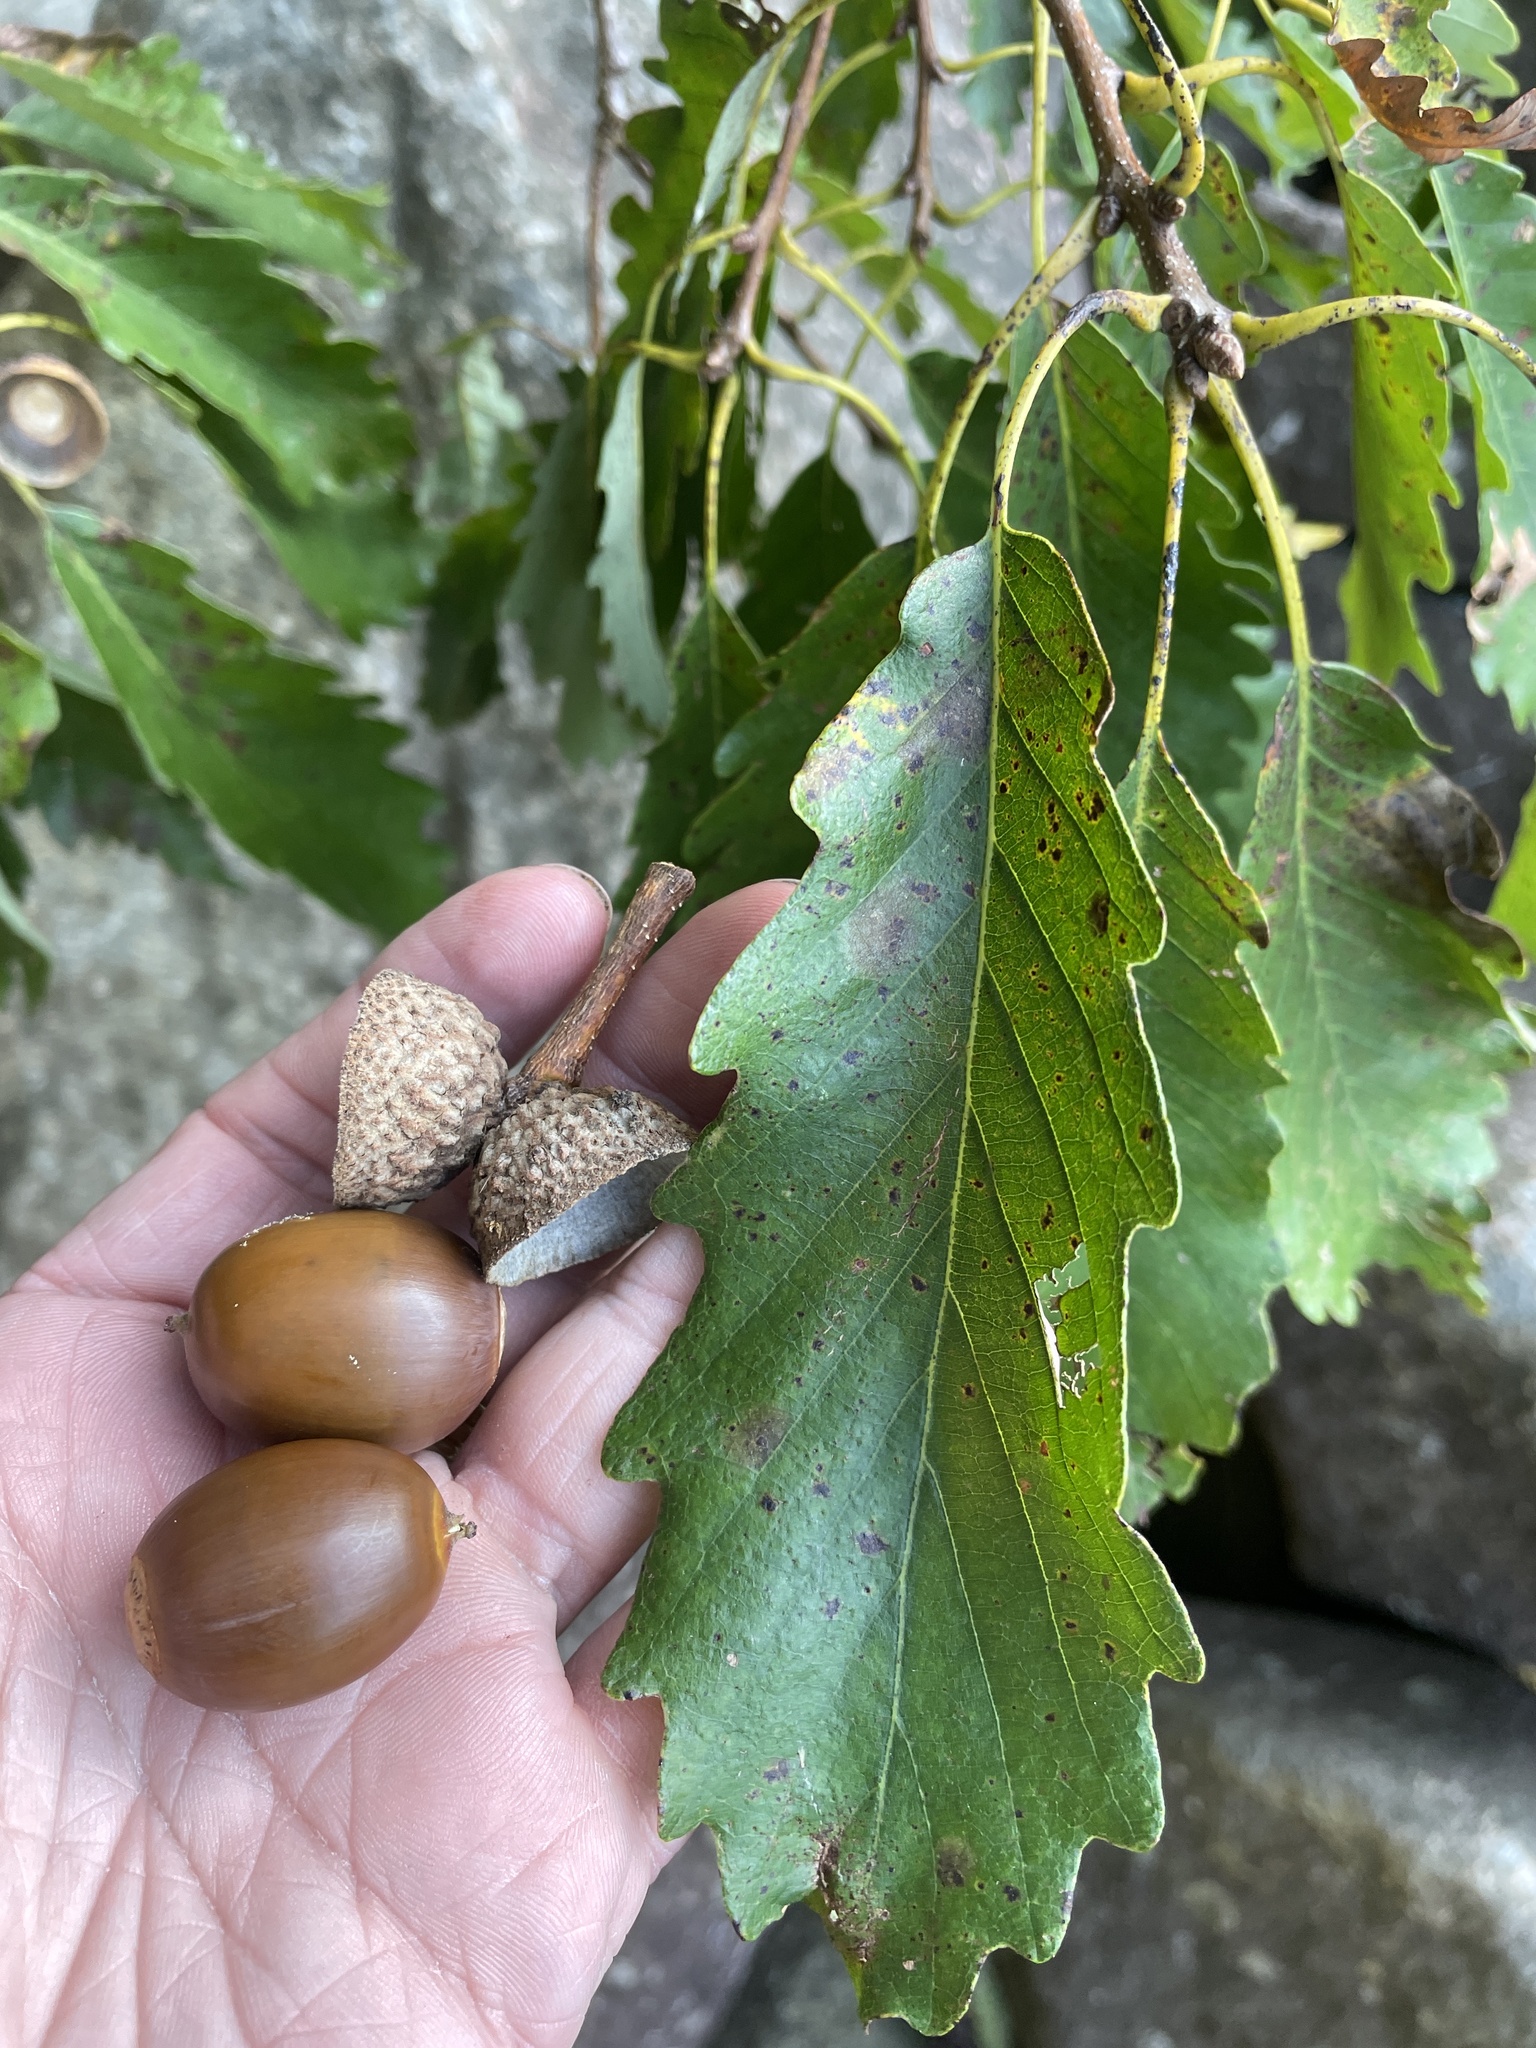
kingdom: Plantae
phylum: Tracheophyta
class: Magnoliopsida
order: Fagales
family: Fagaceae
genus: Quercus
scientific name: Quercus montana
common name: Chestnut oak
